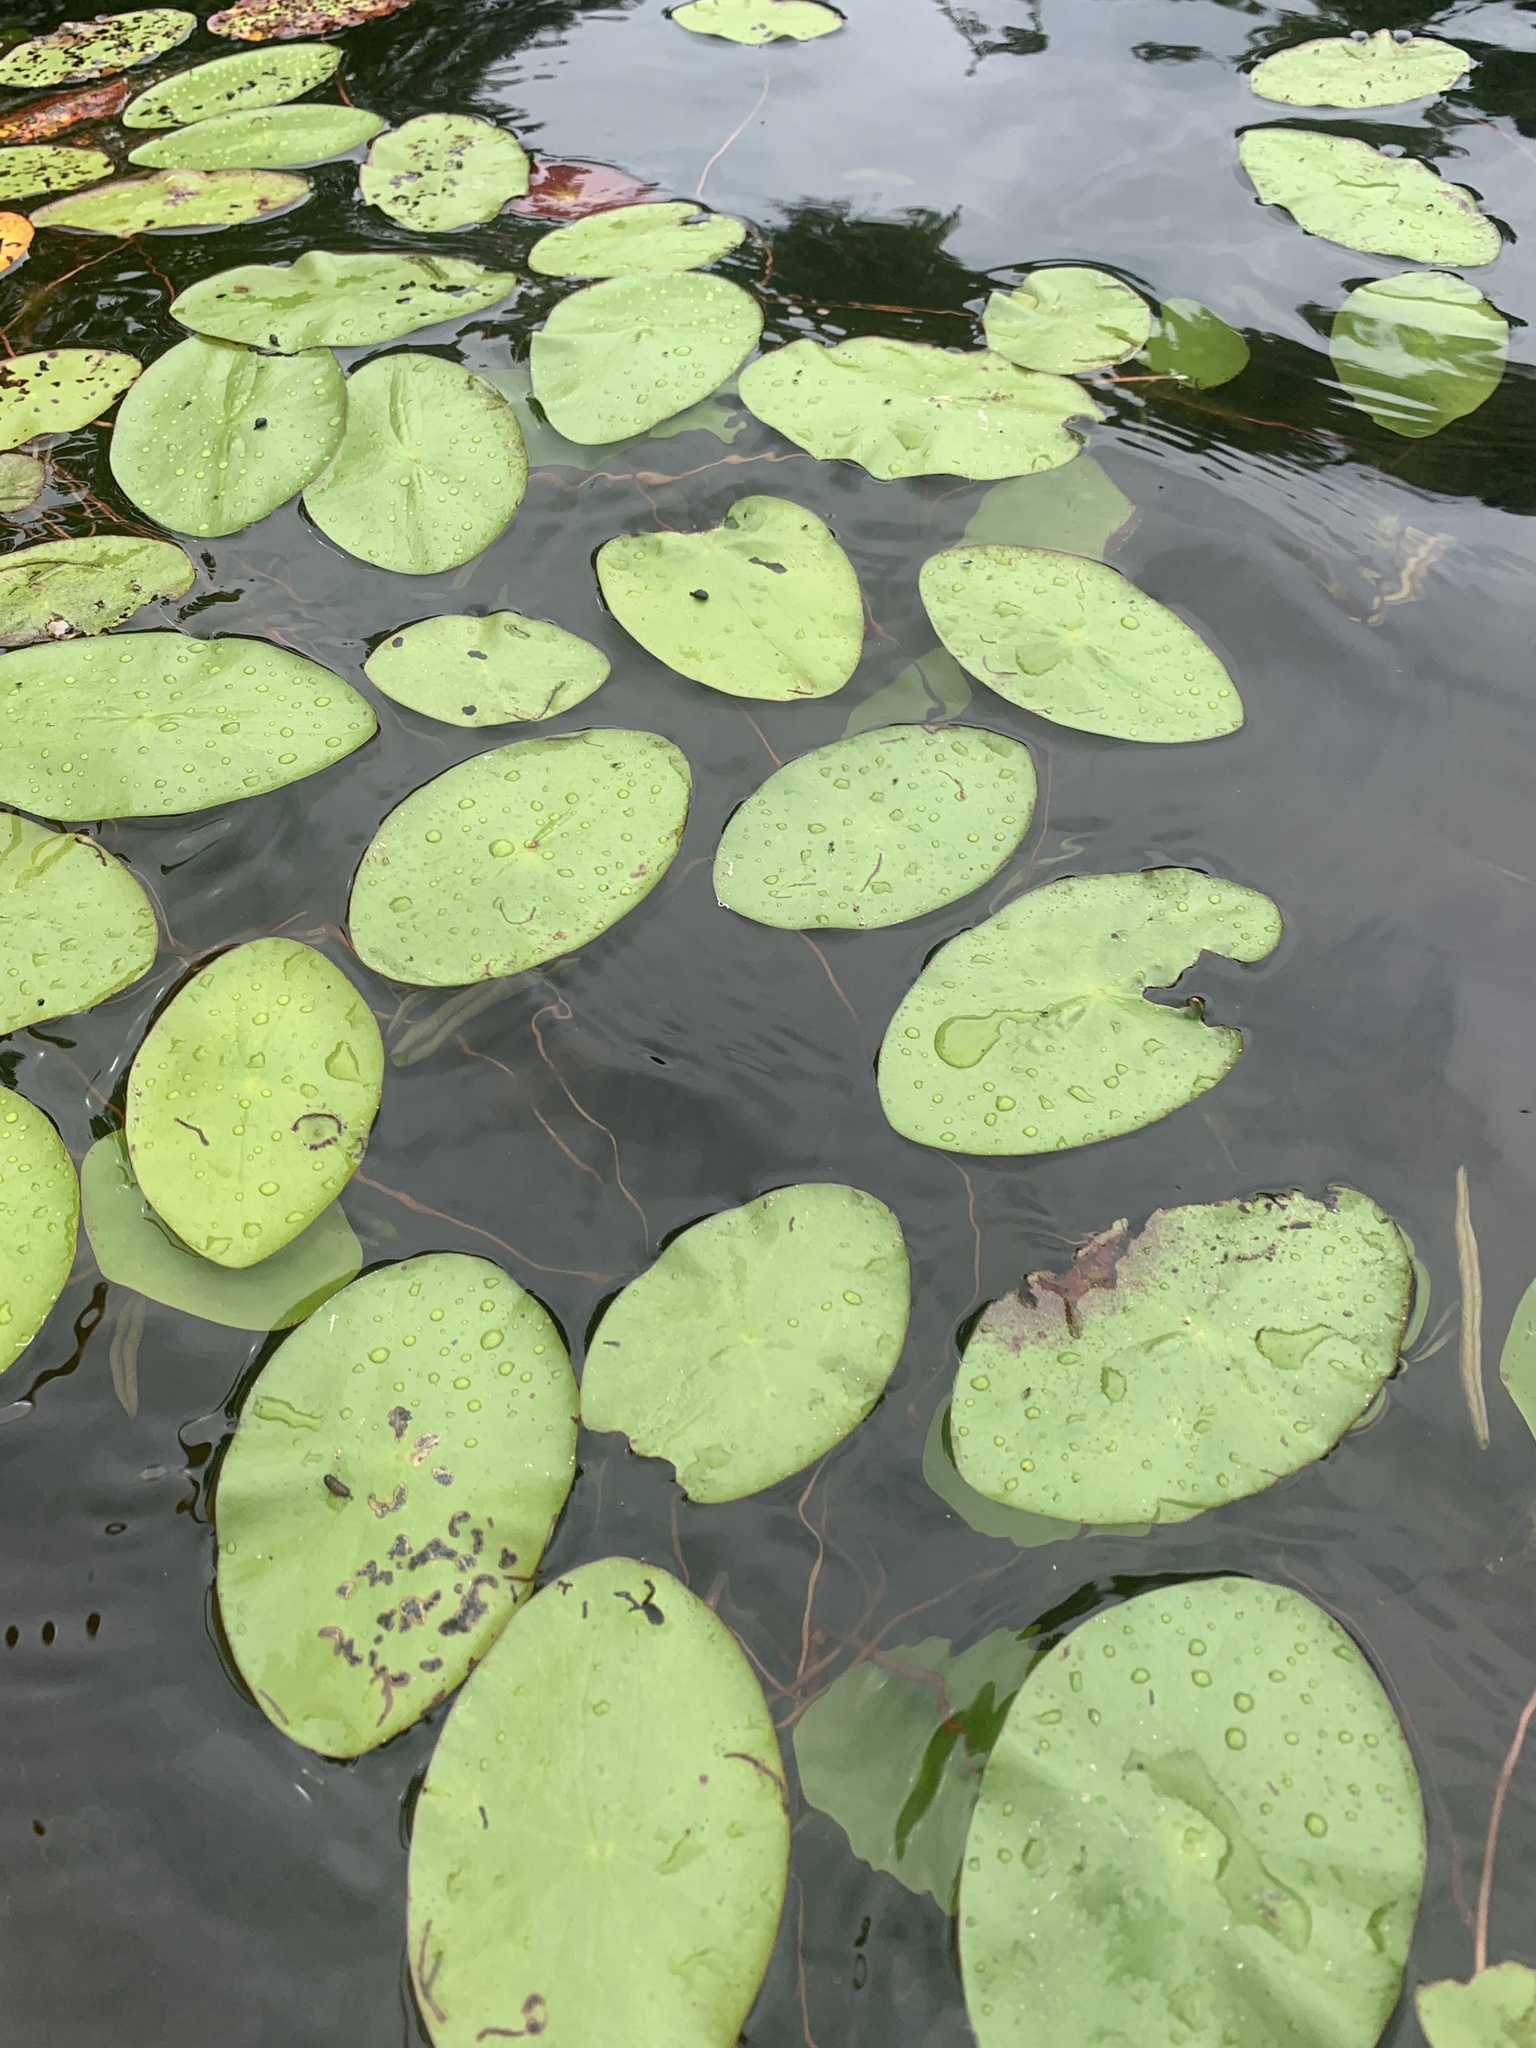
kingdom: Plantae
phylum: Tracheophyta
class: Magnoliopsida
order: Nymphaeales
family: Cabombaceae
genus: Brasenia
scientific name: Brasenia schreberi
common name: Water-shield
